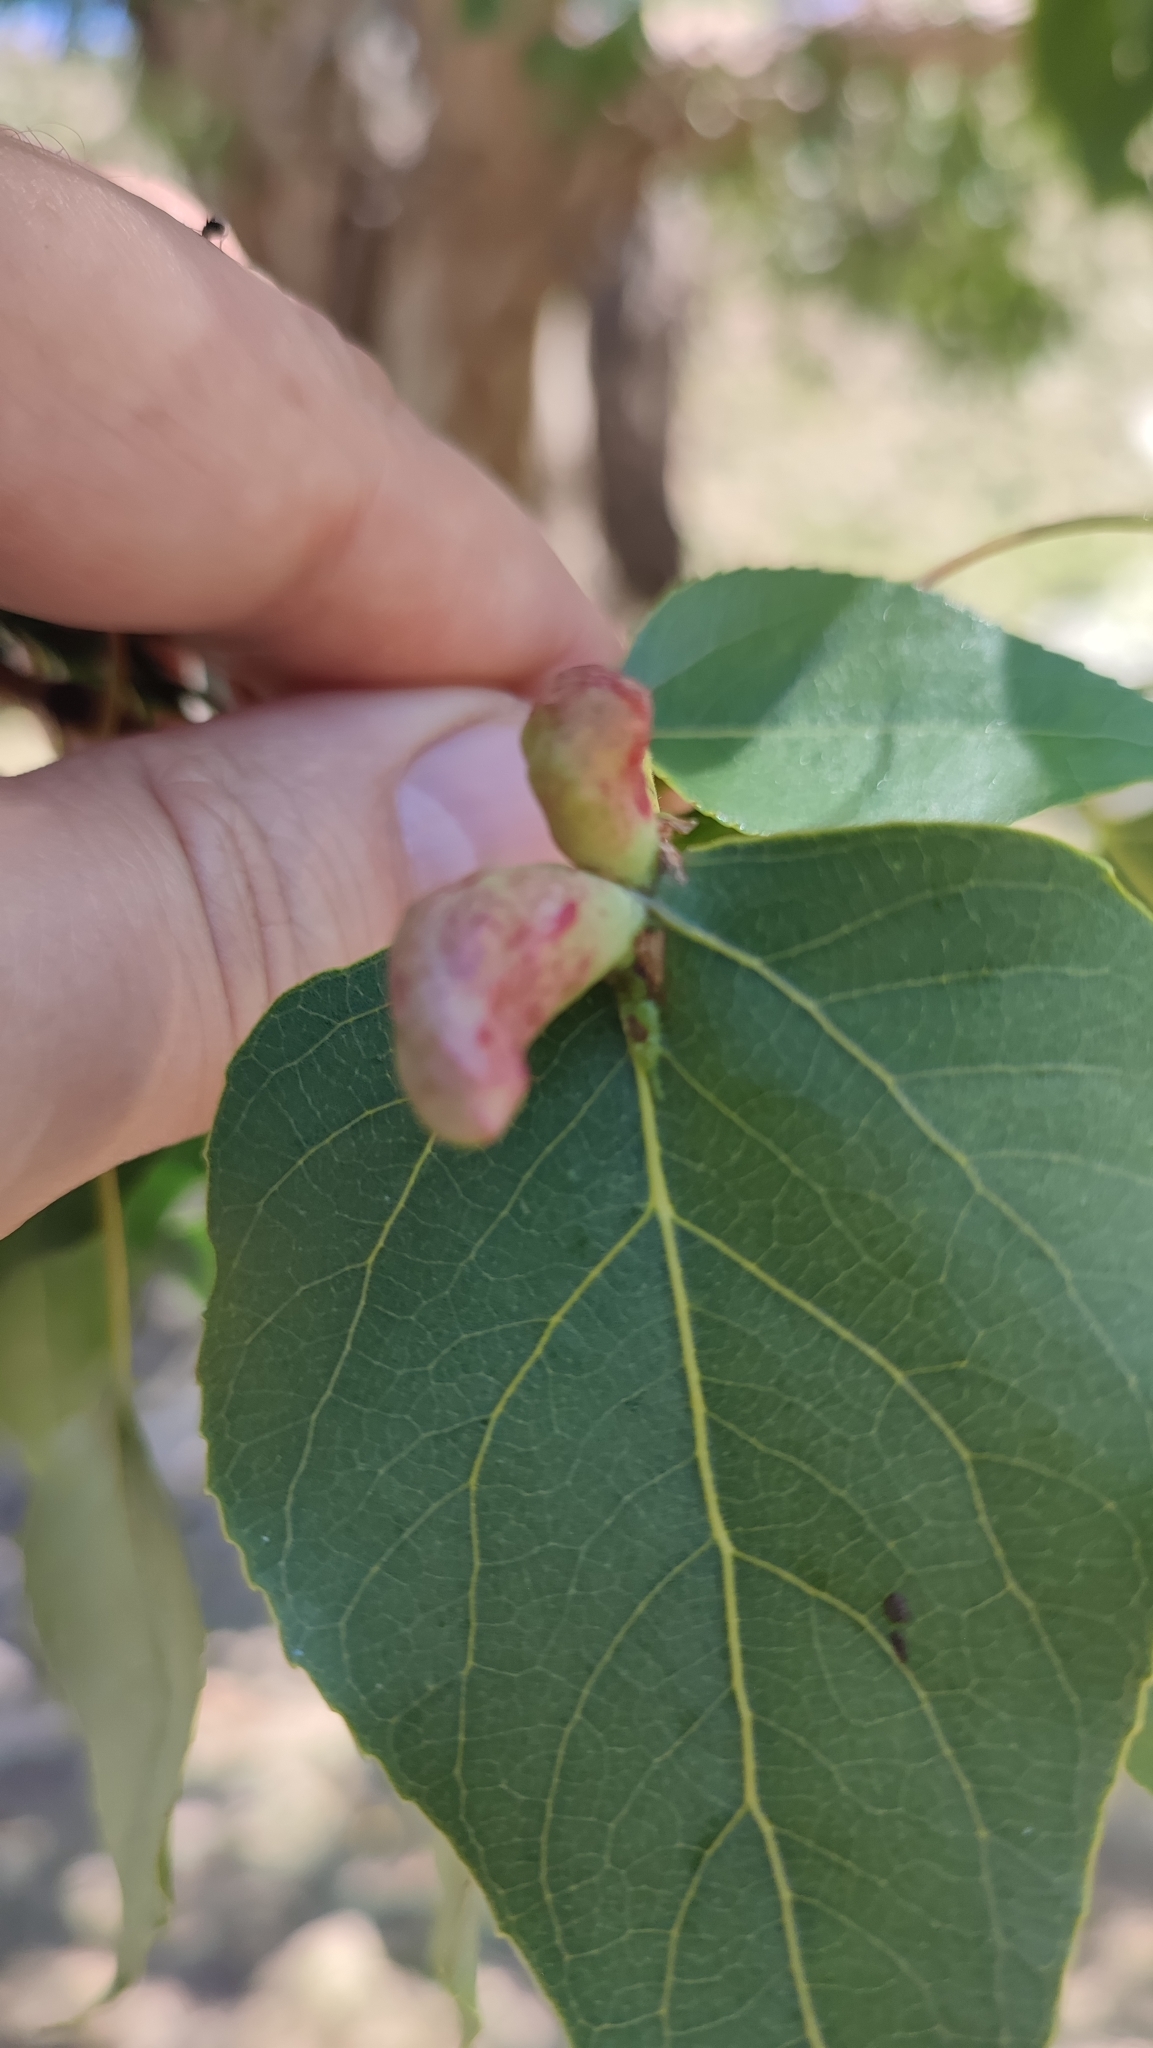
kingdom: Animalia
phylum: Arthropoda
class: Insecta
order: Hemiptera
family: Aphididae
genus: Pemphigus
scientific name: Pemphigus populi
